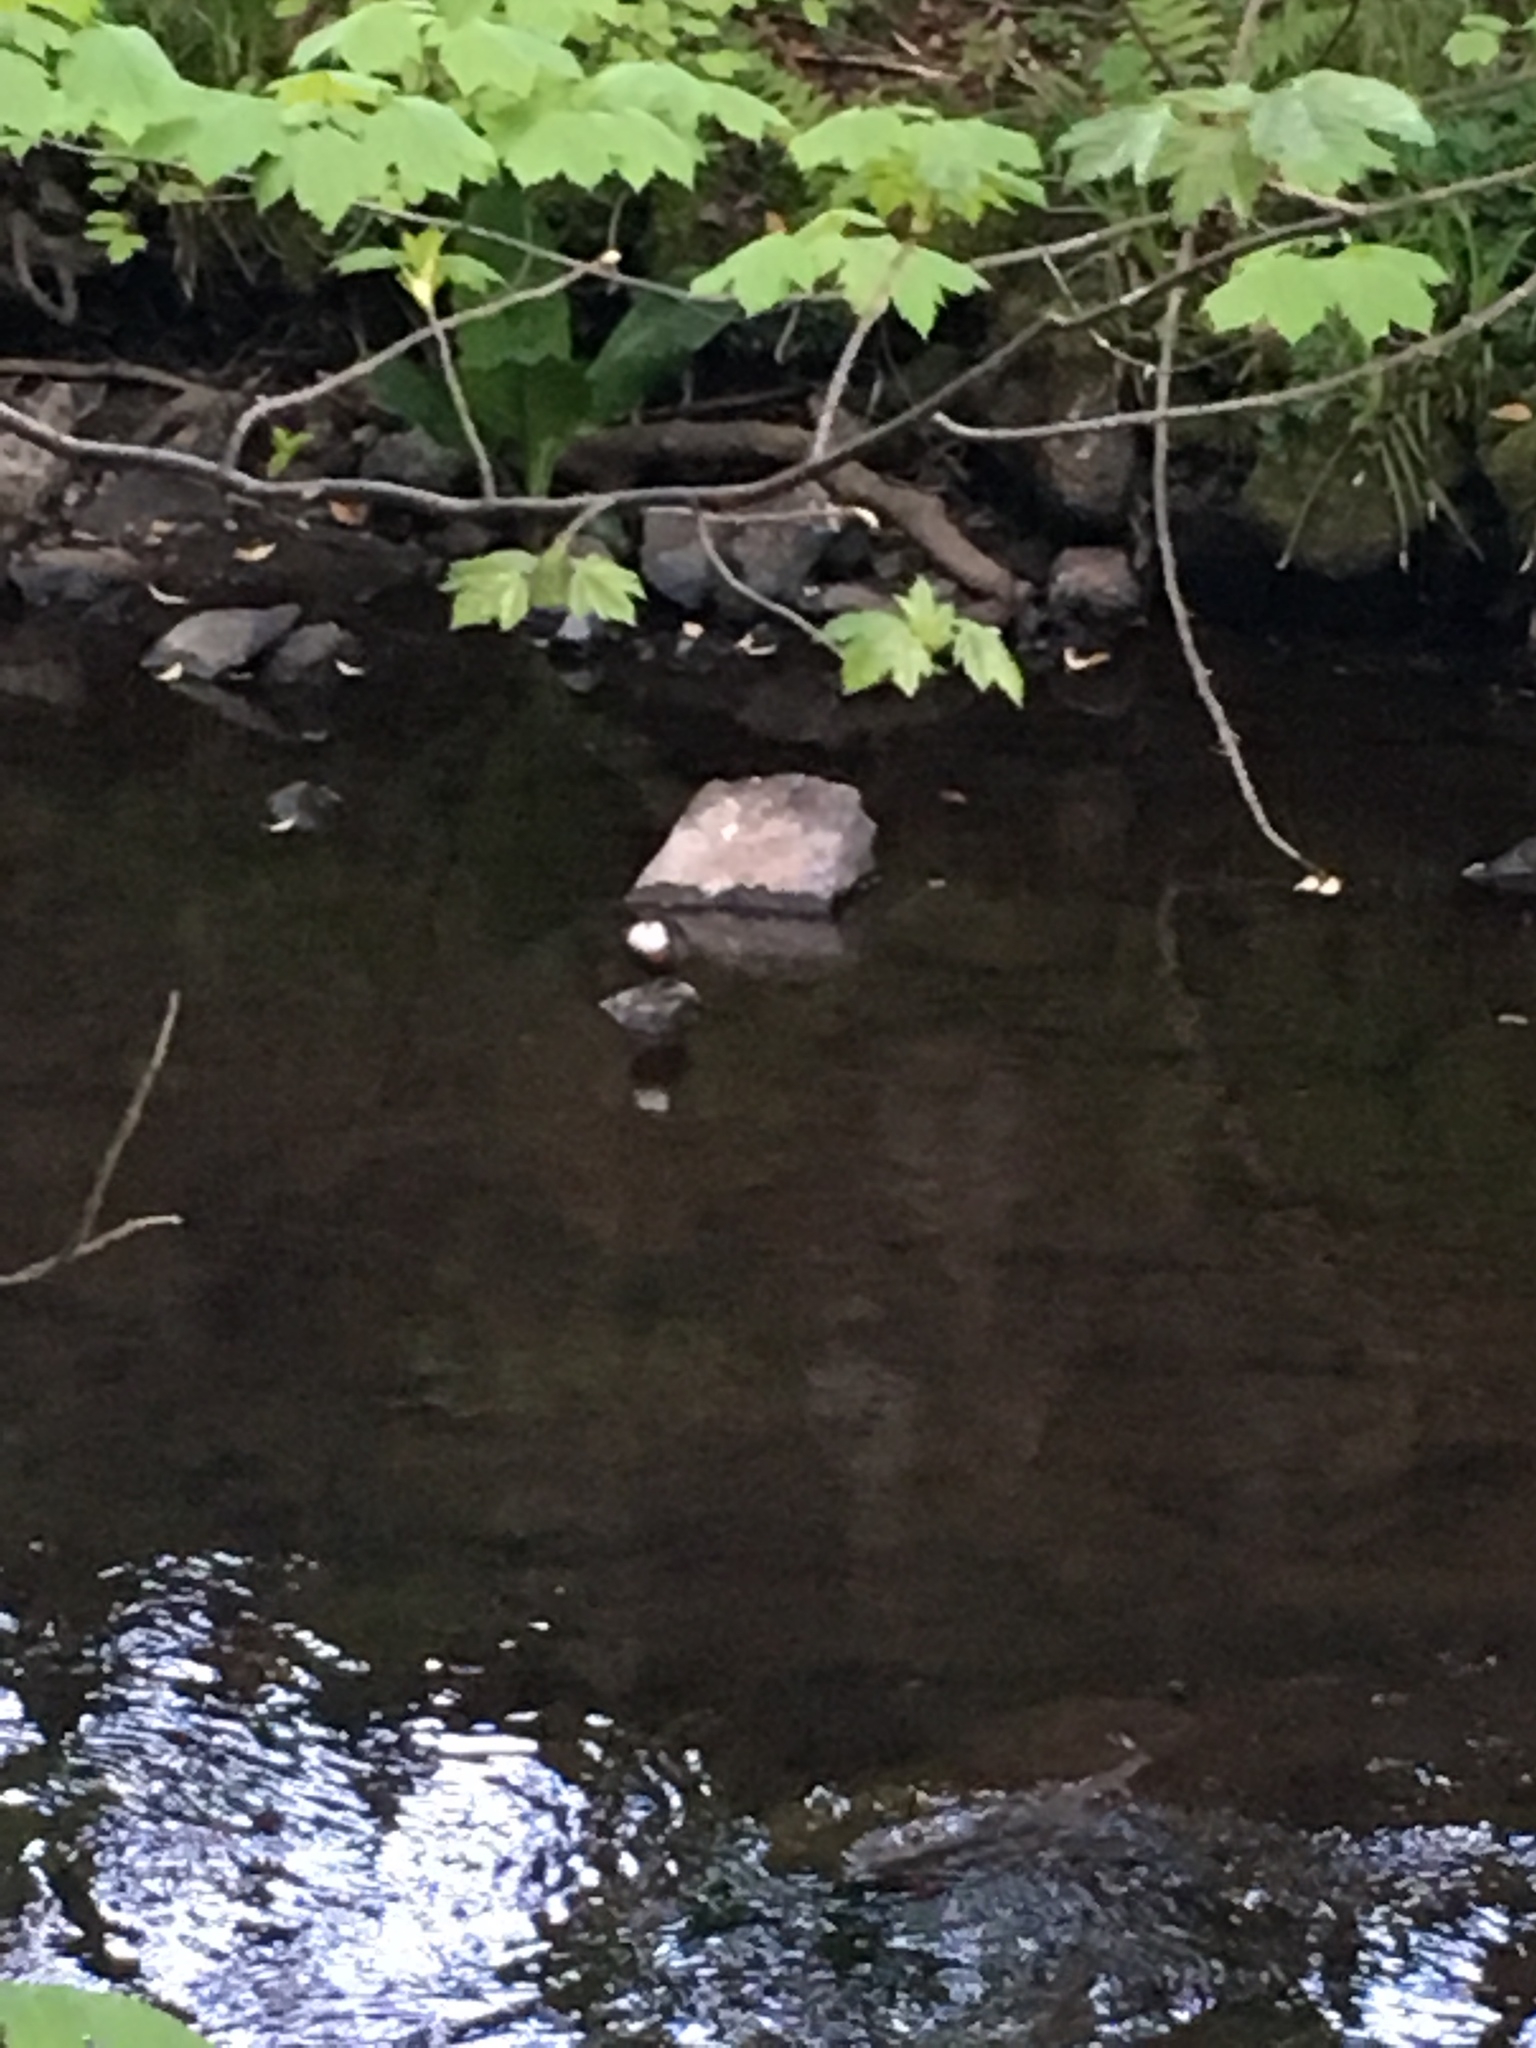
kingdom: Animalia
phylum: Chordata
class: Aves
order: Passeriformes
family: Cinclidae
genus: Cinclus
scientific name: Cinclus cinclus
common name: White-throated dipper
